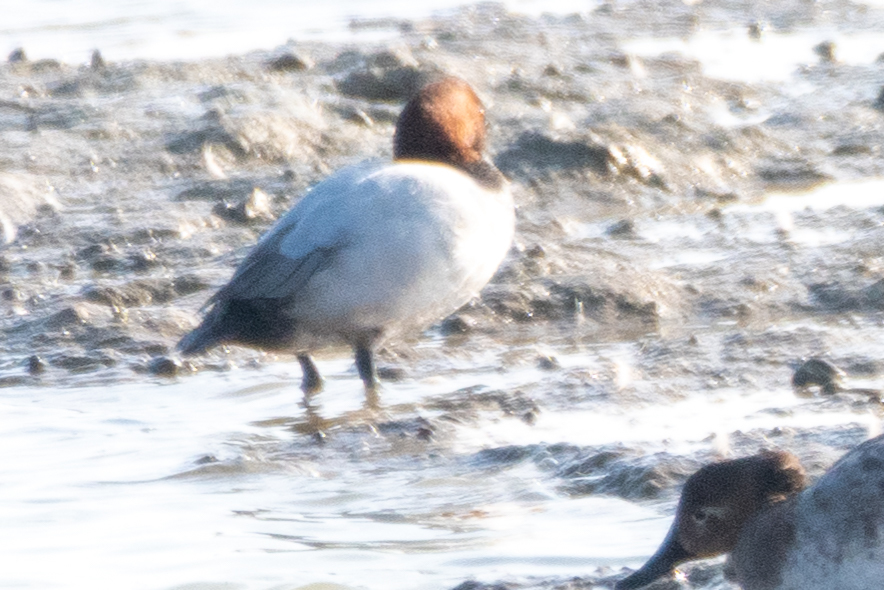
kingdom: Animalia
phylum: Chordata
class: Aves
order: Anseriformes
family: Anatidae
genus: Aythya
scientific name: Aythya valisineria
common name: Canvasback
